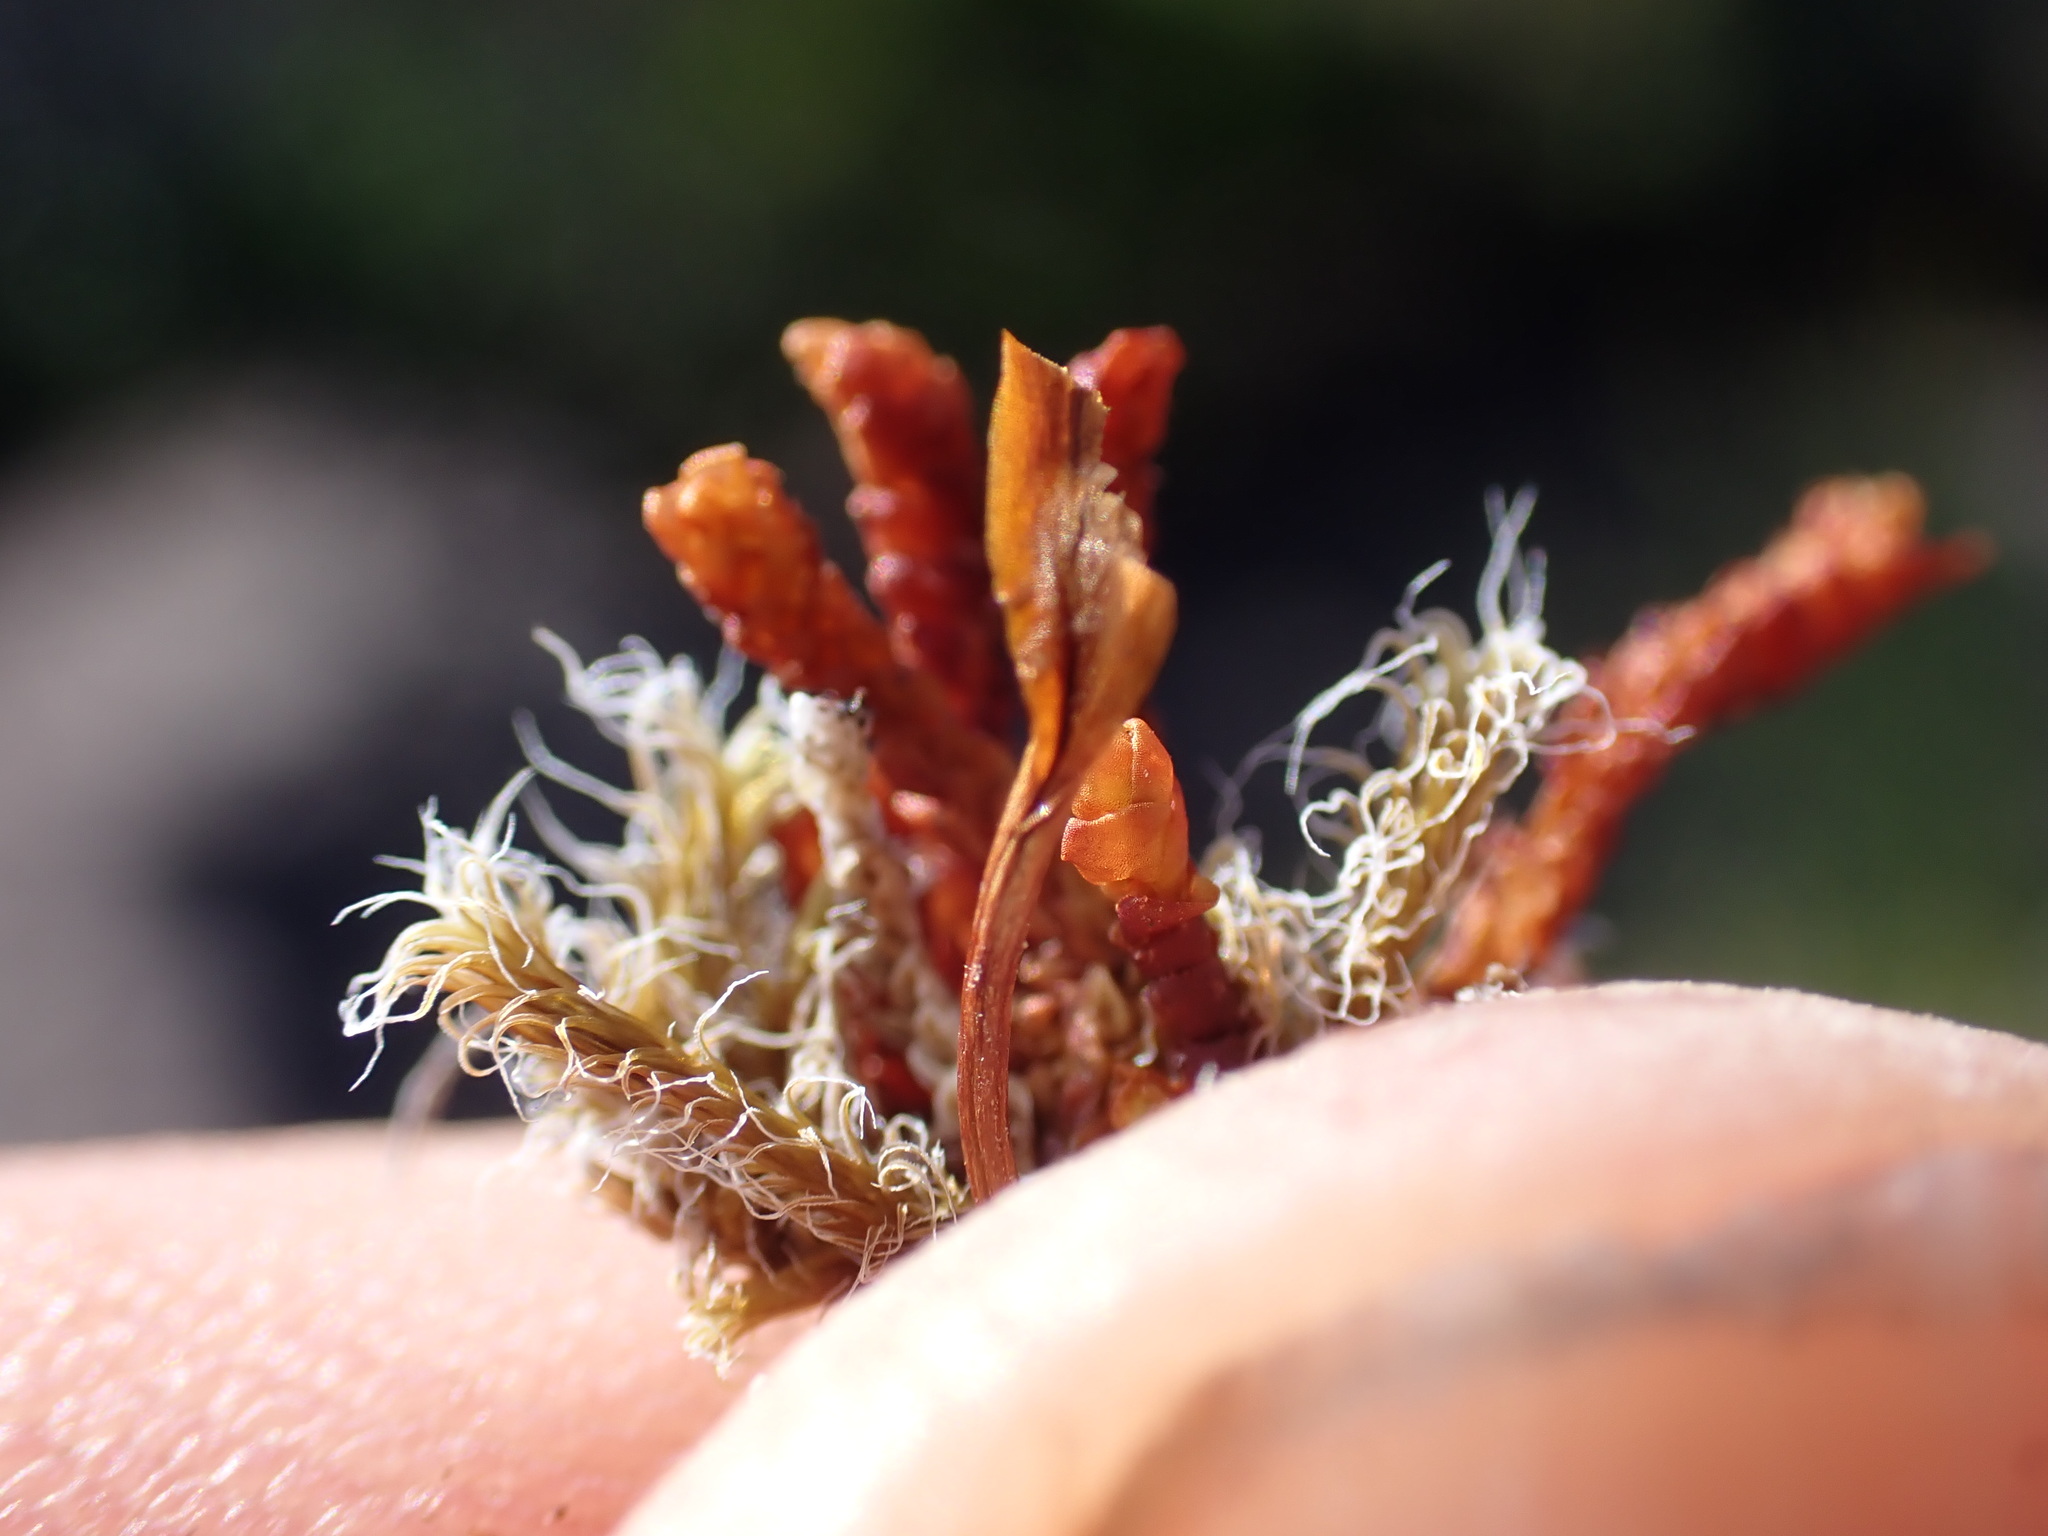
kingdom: Plantae
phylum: Marchantiophyta
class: Jungermanniopsida
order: Pleuroziales
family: Pleuroziaceae
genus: Pleurozia
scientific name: Pleurozia purpurea
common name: Purple spoonwort
